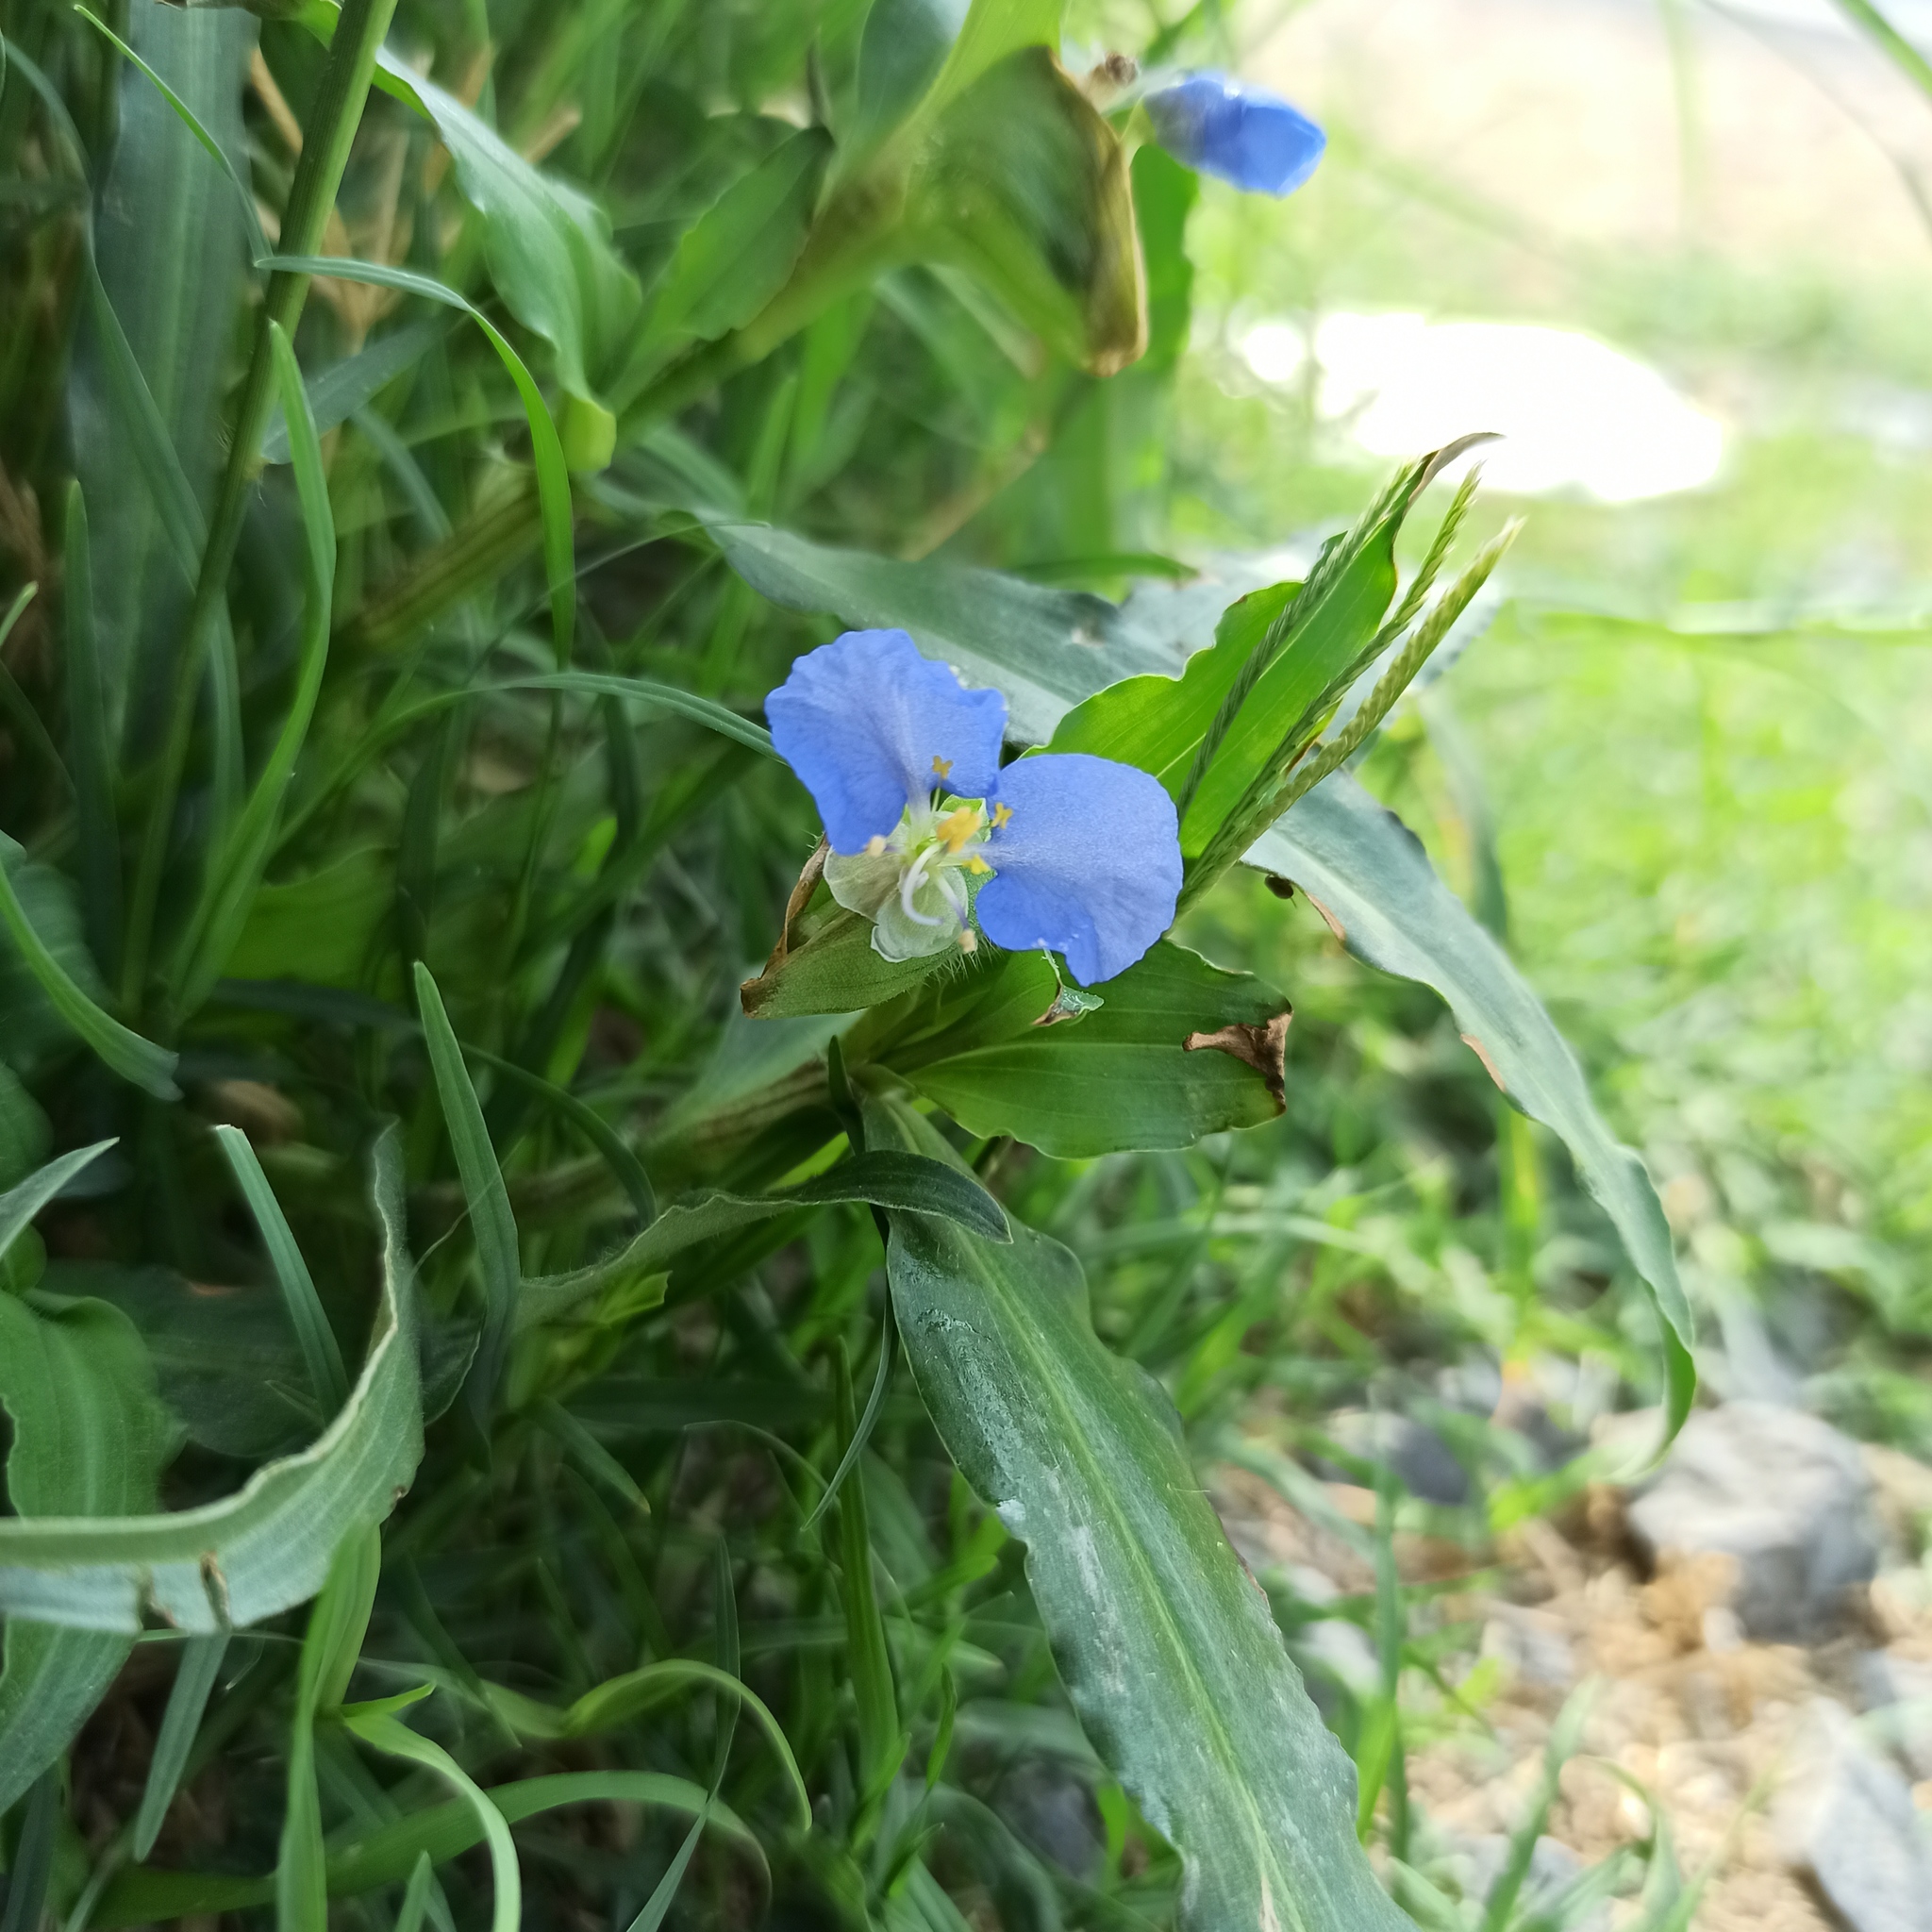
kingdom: Plantae
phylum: Tracheophyta
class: Liliopsida
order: Commelinales
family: Commelinaceae
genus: Commelina
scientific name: Commelina erecta
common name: Blousel blommetjie
